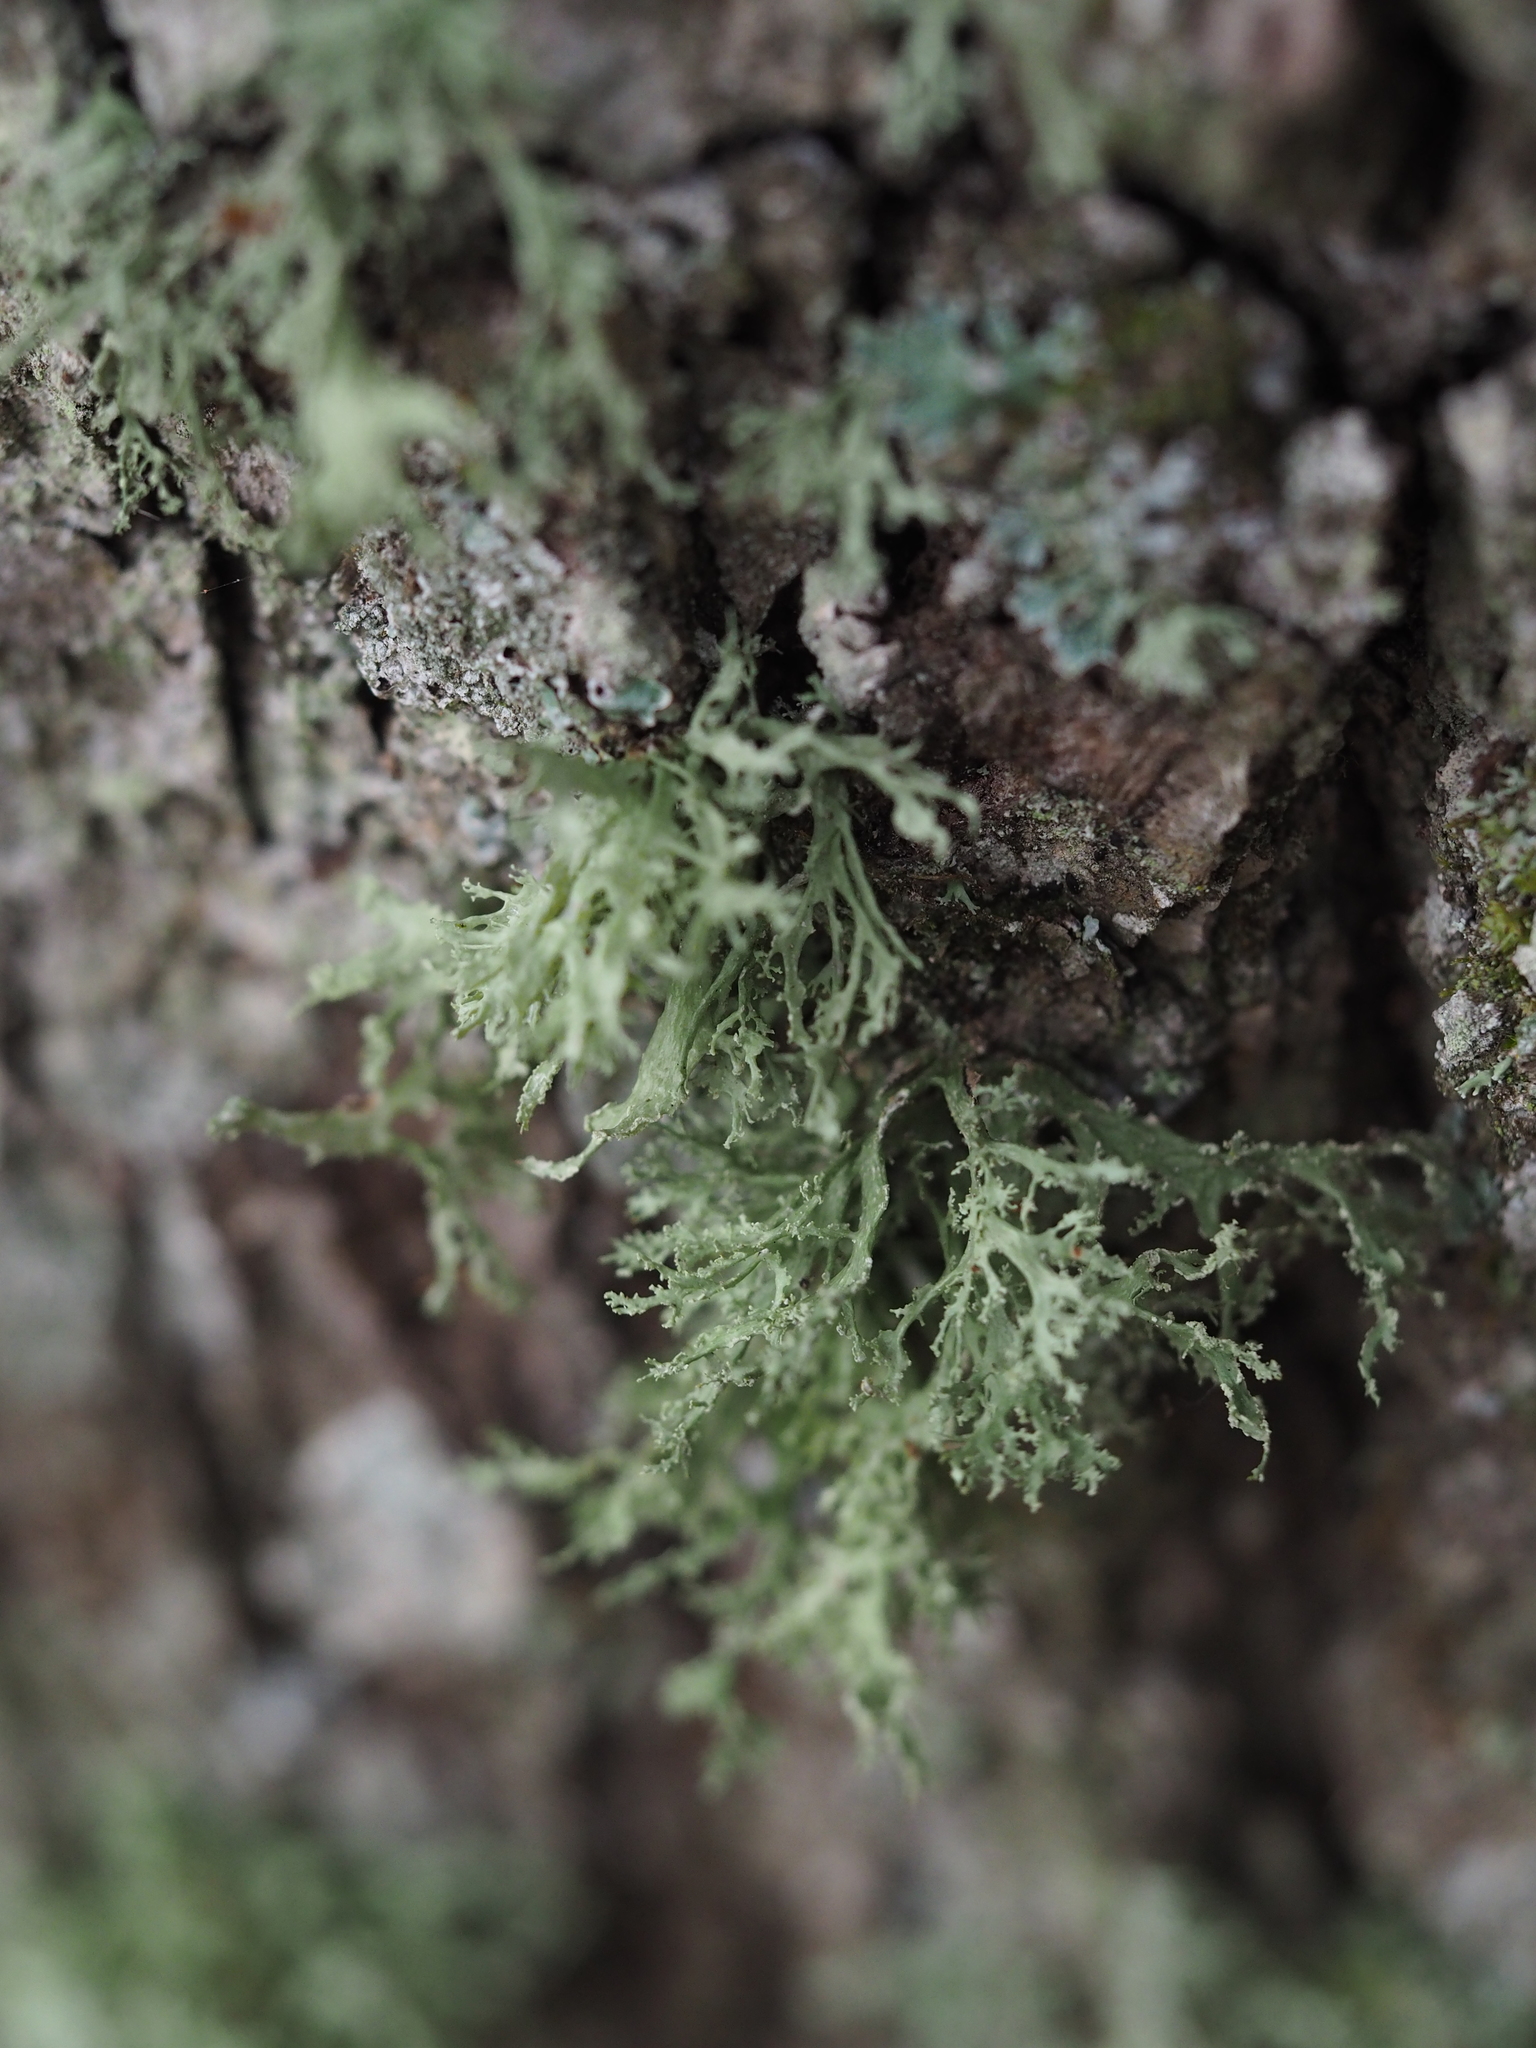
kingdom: Fungi
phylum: Ascomycota
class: Lecanoromycetes
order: Lecanorales
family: Ramalinaceae
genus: Ramalina
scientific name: Ramalina farinacea
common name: Farinose cartilage lichen
